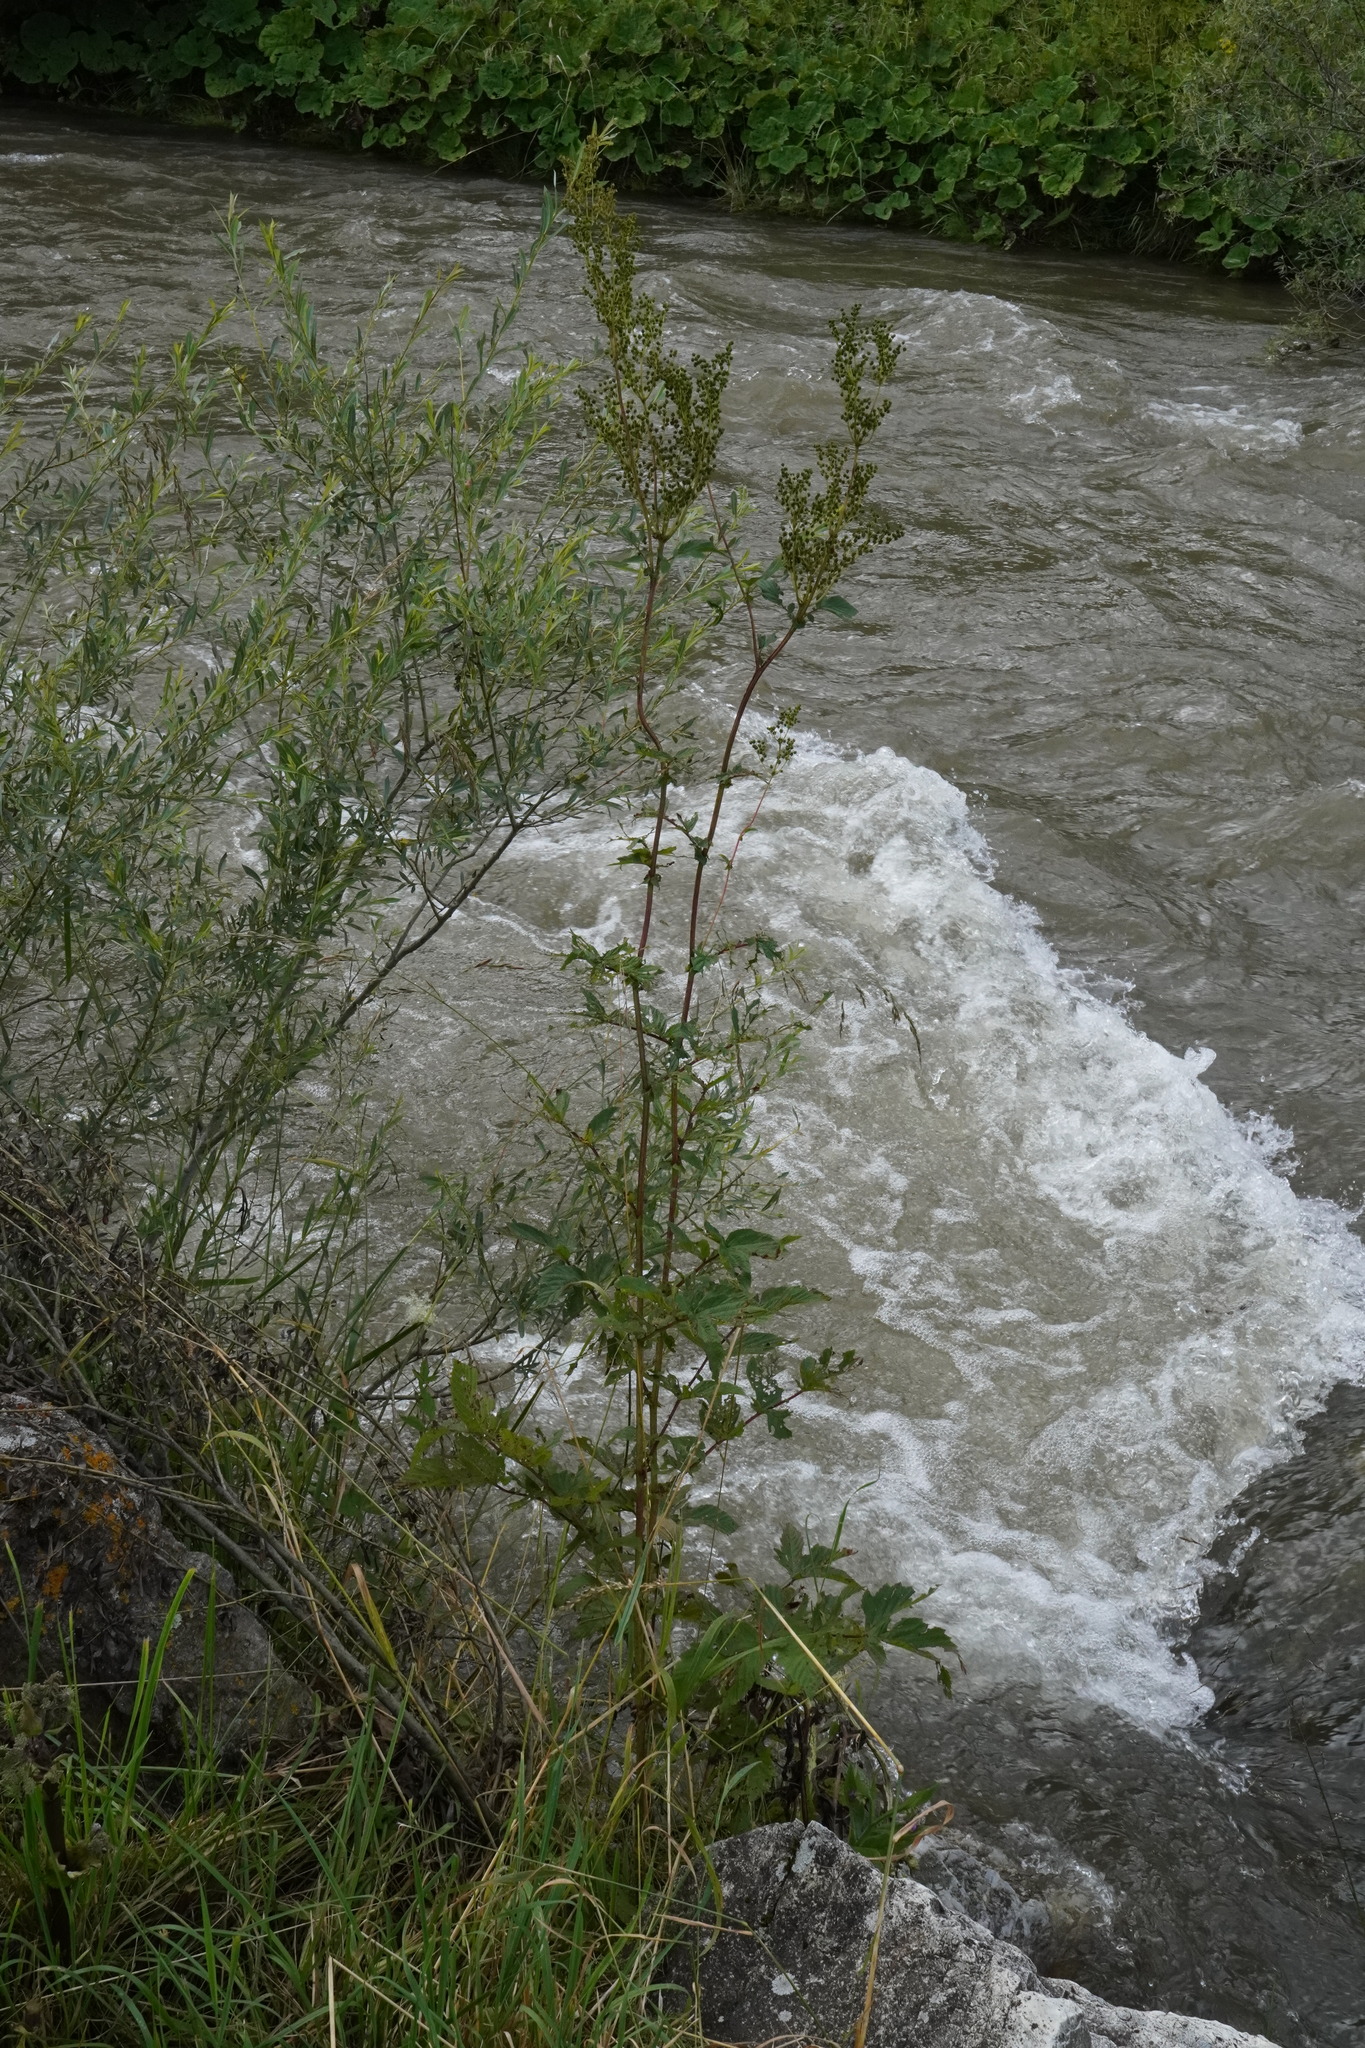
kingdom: Plantae
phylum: Tracheophyta
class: Magnoliopsida
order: Rosales
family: Rosaceae
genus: Filipendula
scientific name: Filipendula ulmaria
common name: Meadowsweet
